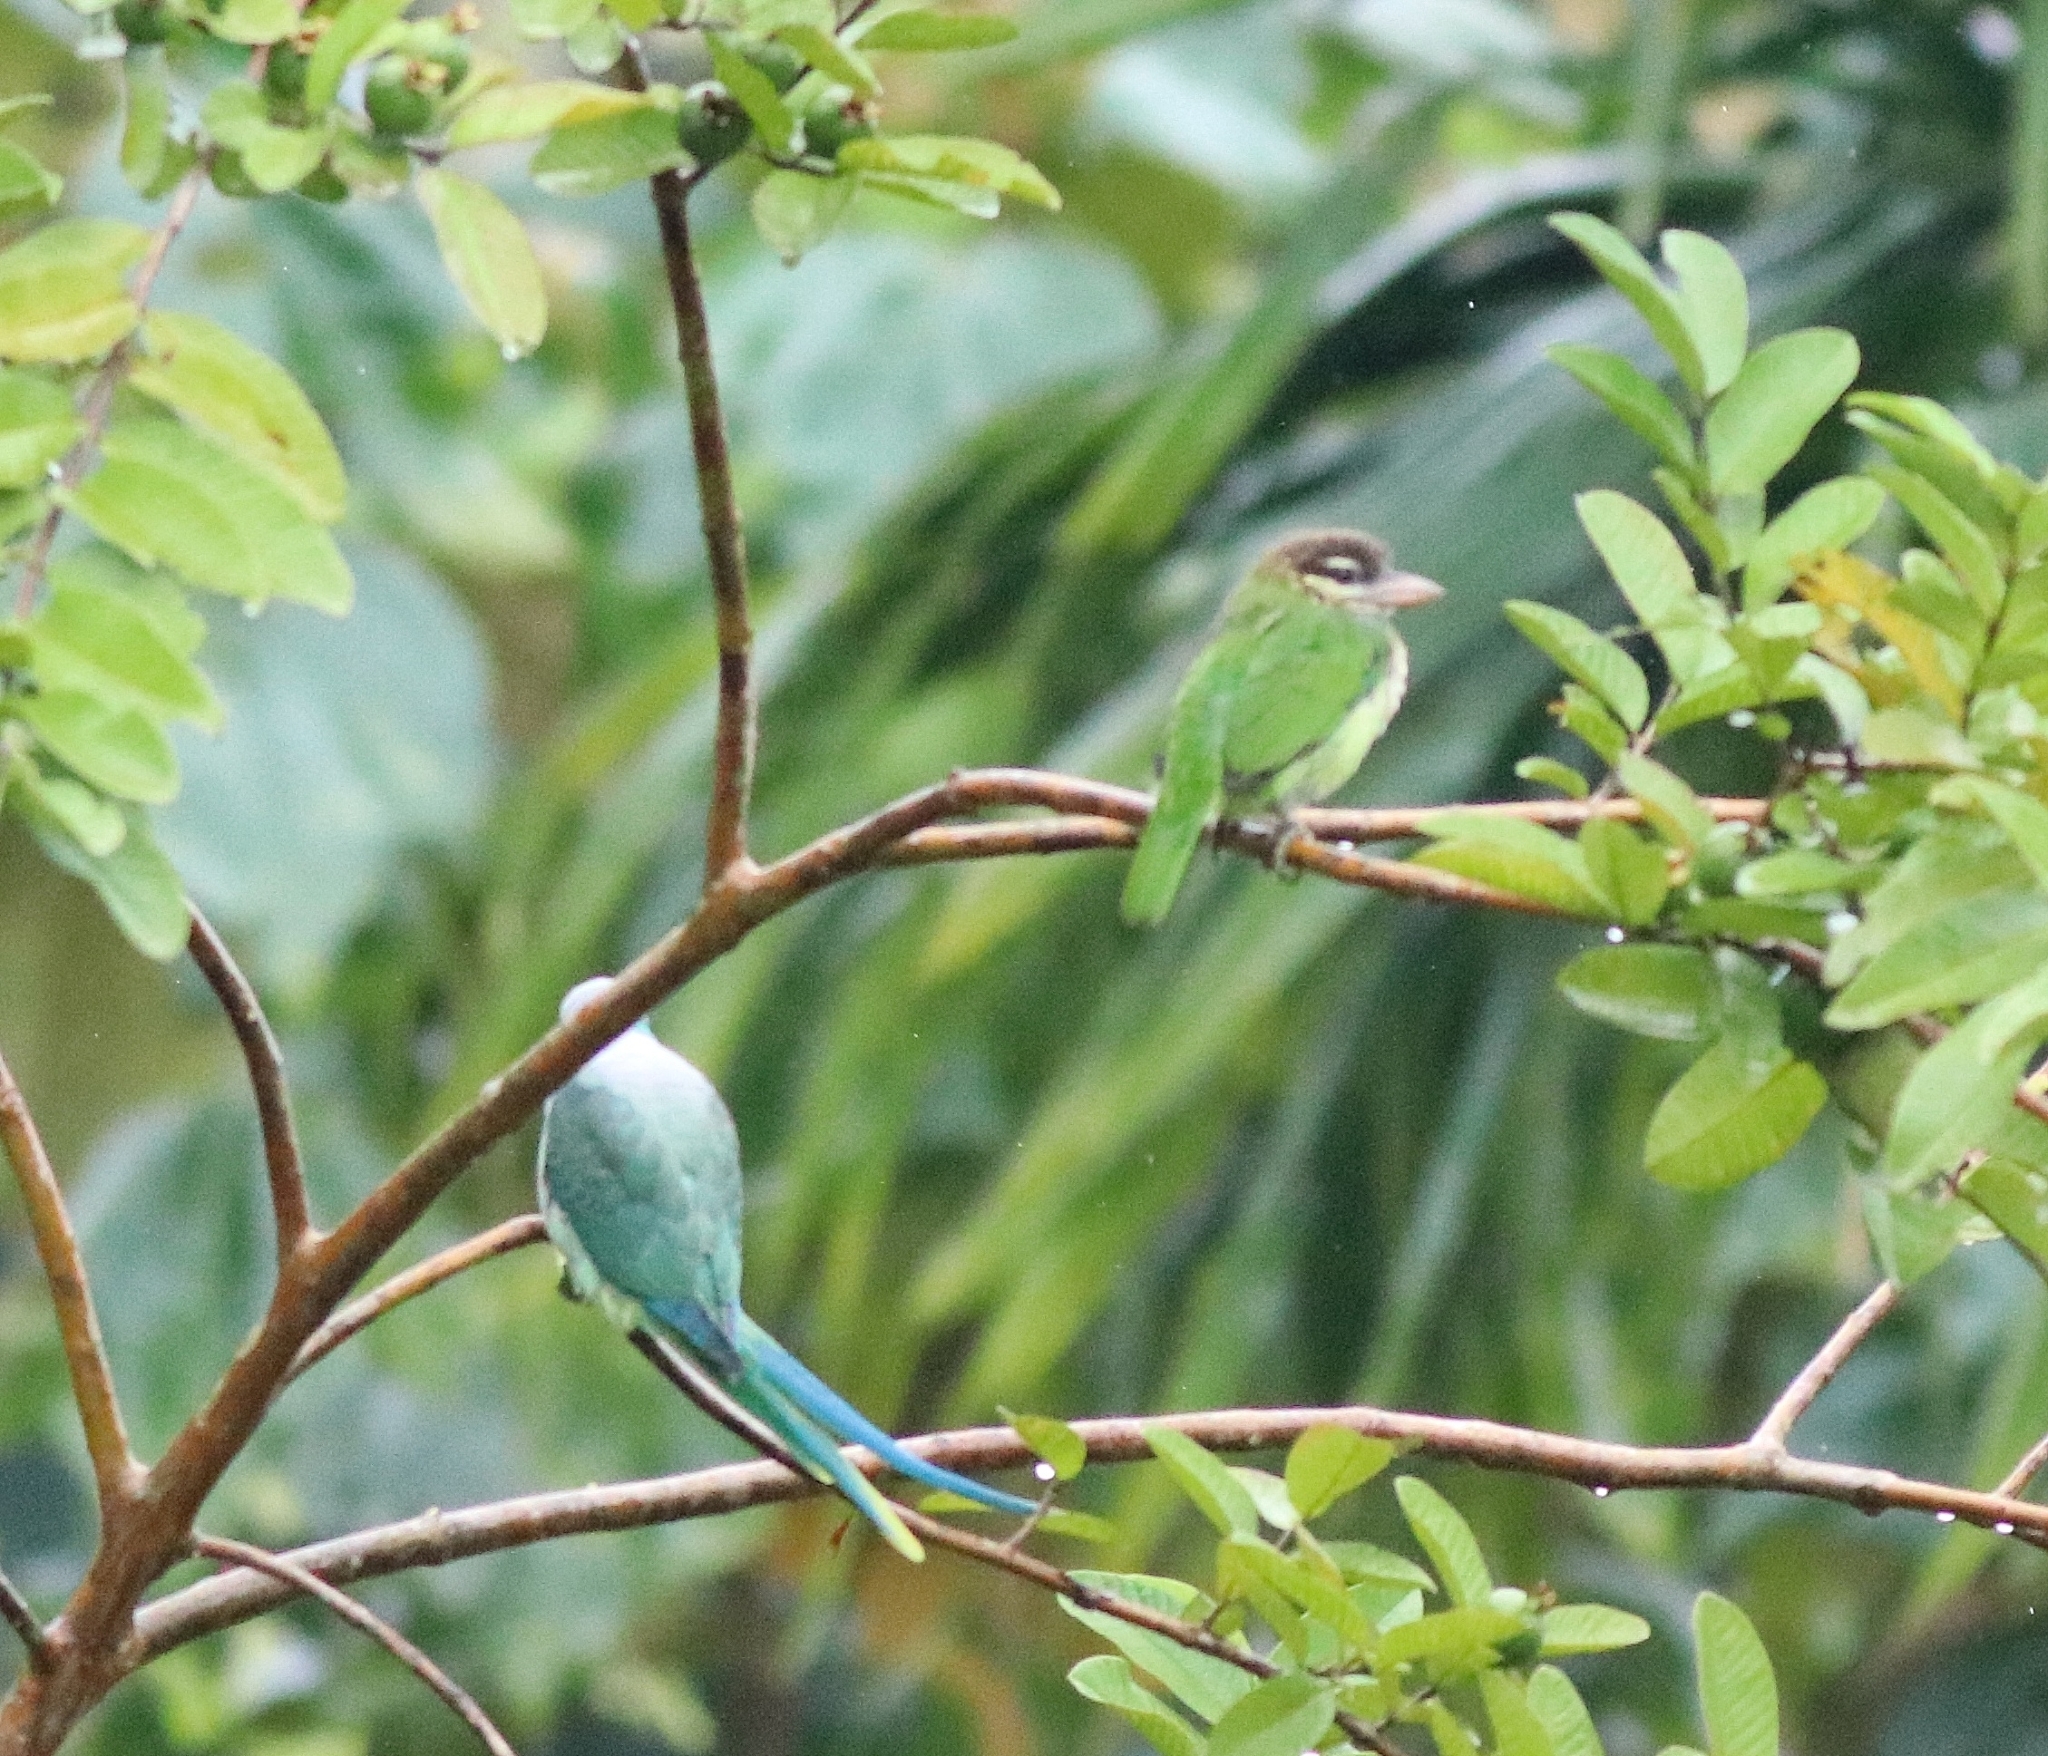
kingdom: Animalia
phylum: Chordata
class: Aves
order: Piciformes
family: Megalaimidae
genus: Psilopogon
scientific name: Psilopogon viridis
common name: White-cheeked barbet
